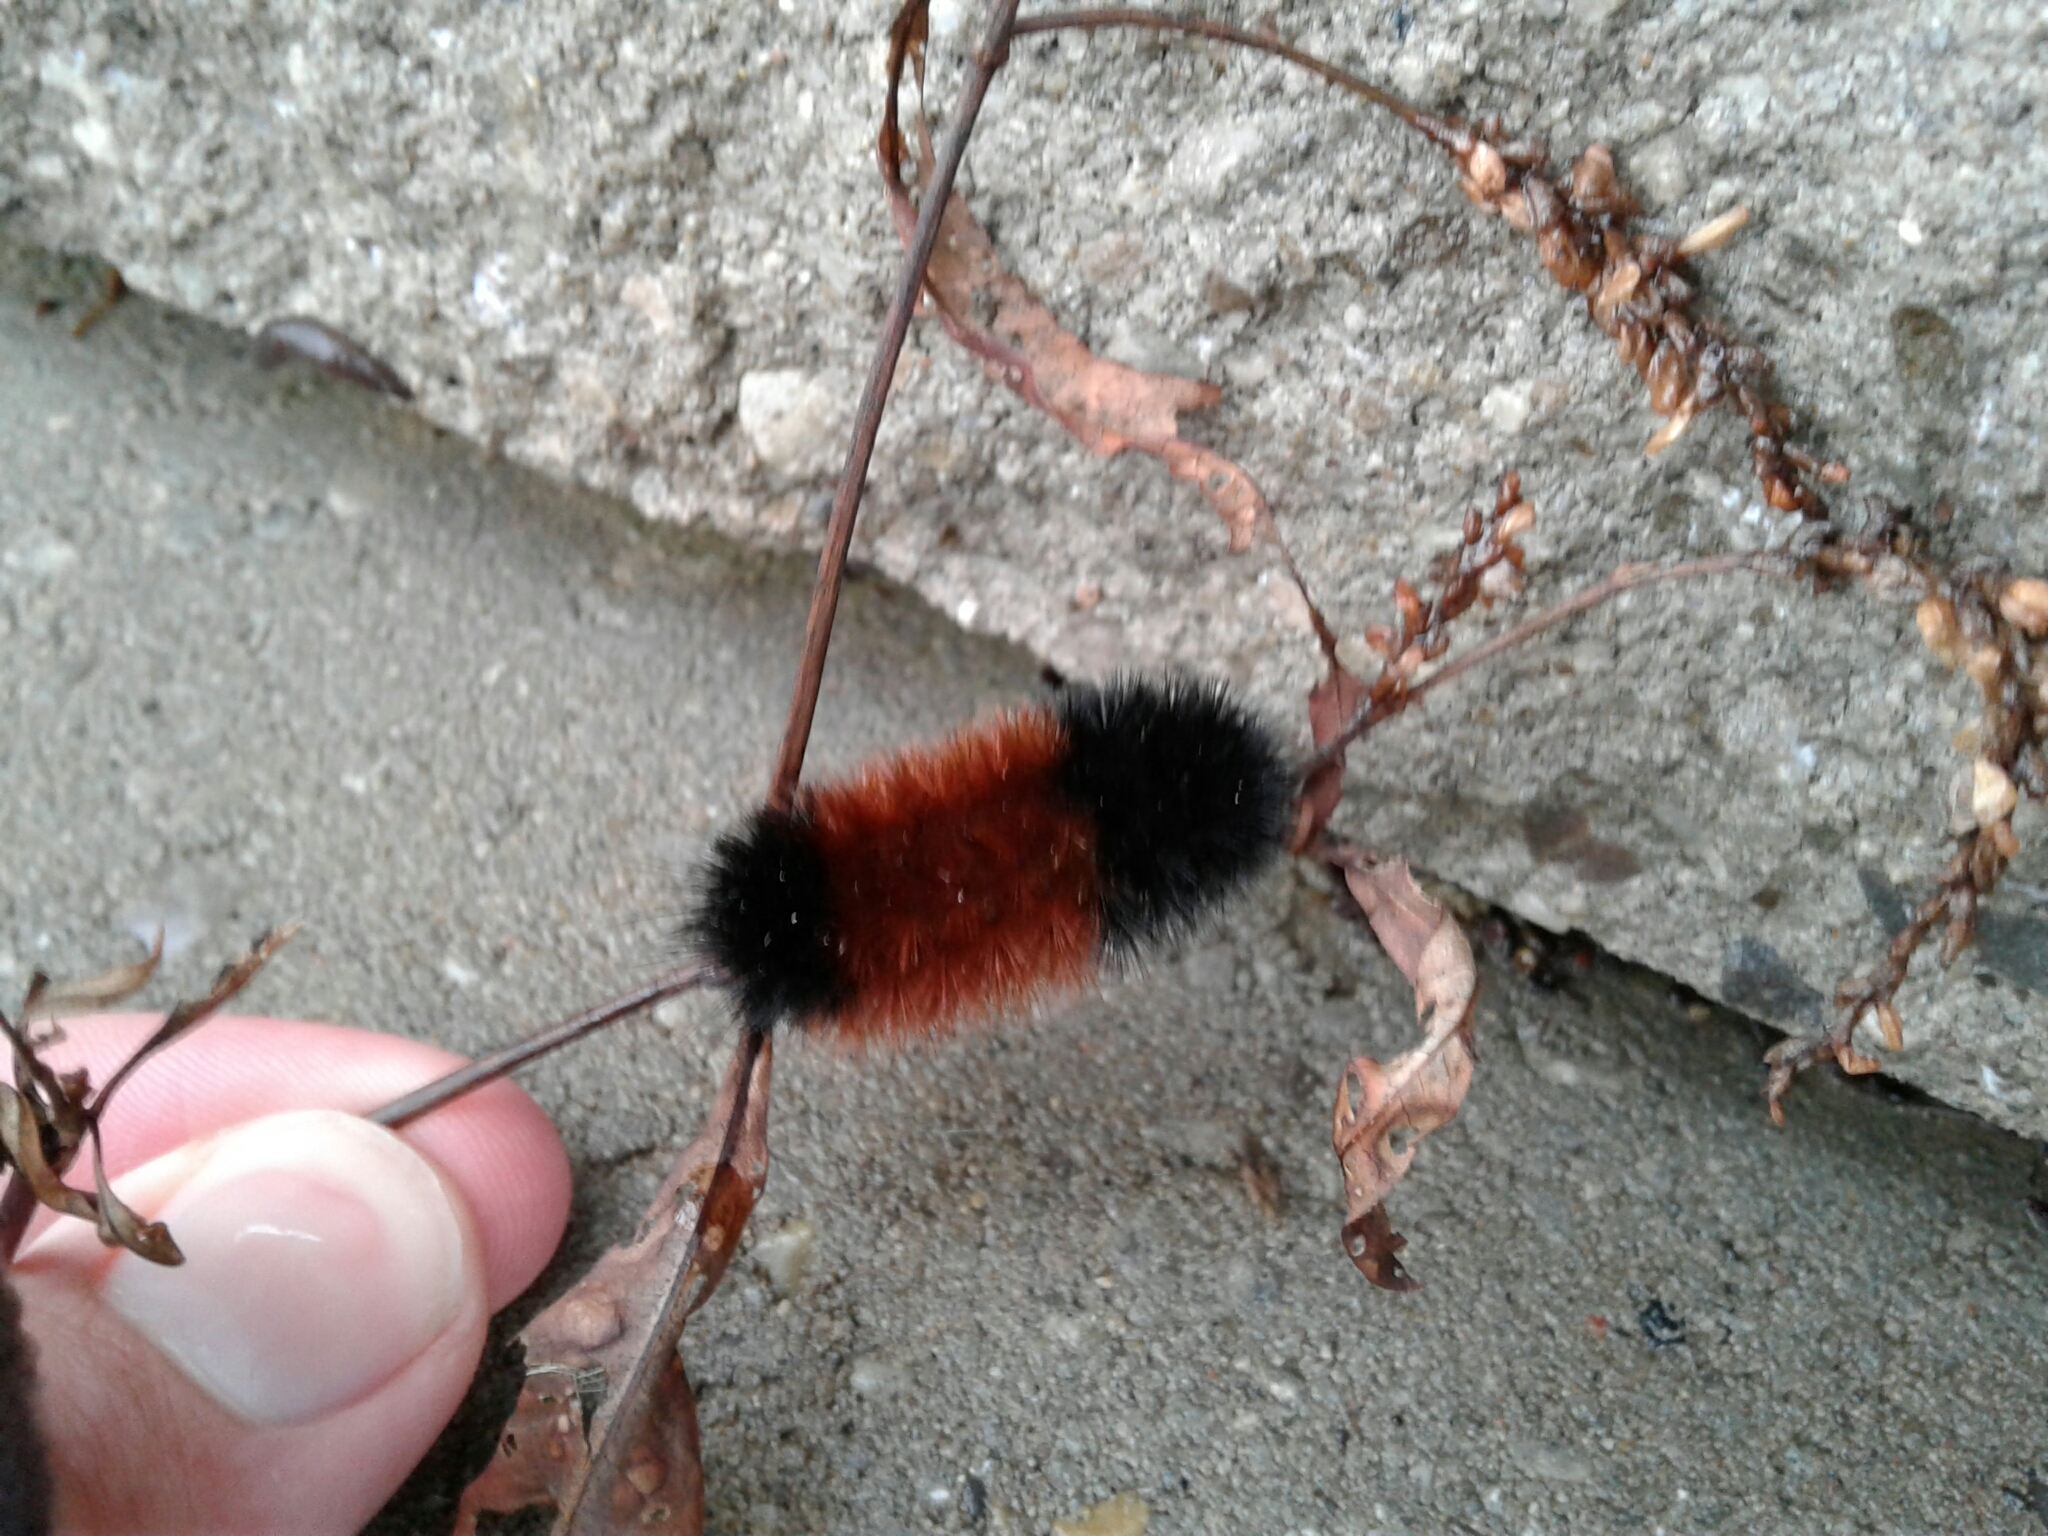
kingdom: Animalia
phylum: Arthropoda
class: Insecta
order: Lepidoptera
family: Erebidae
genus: Pyrrharctia
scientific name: Pyrrharctia isabella
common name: Isabella tiger moth
